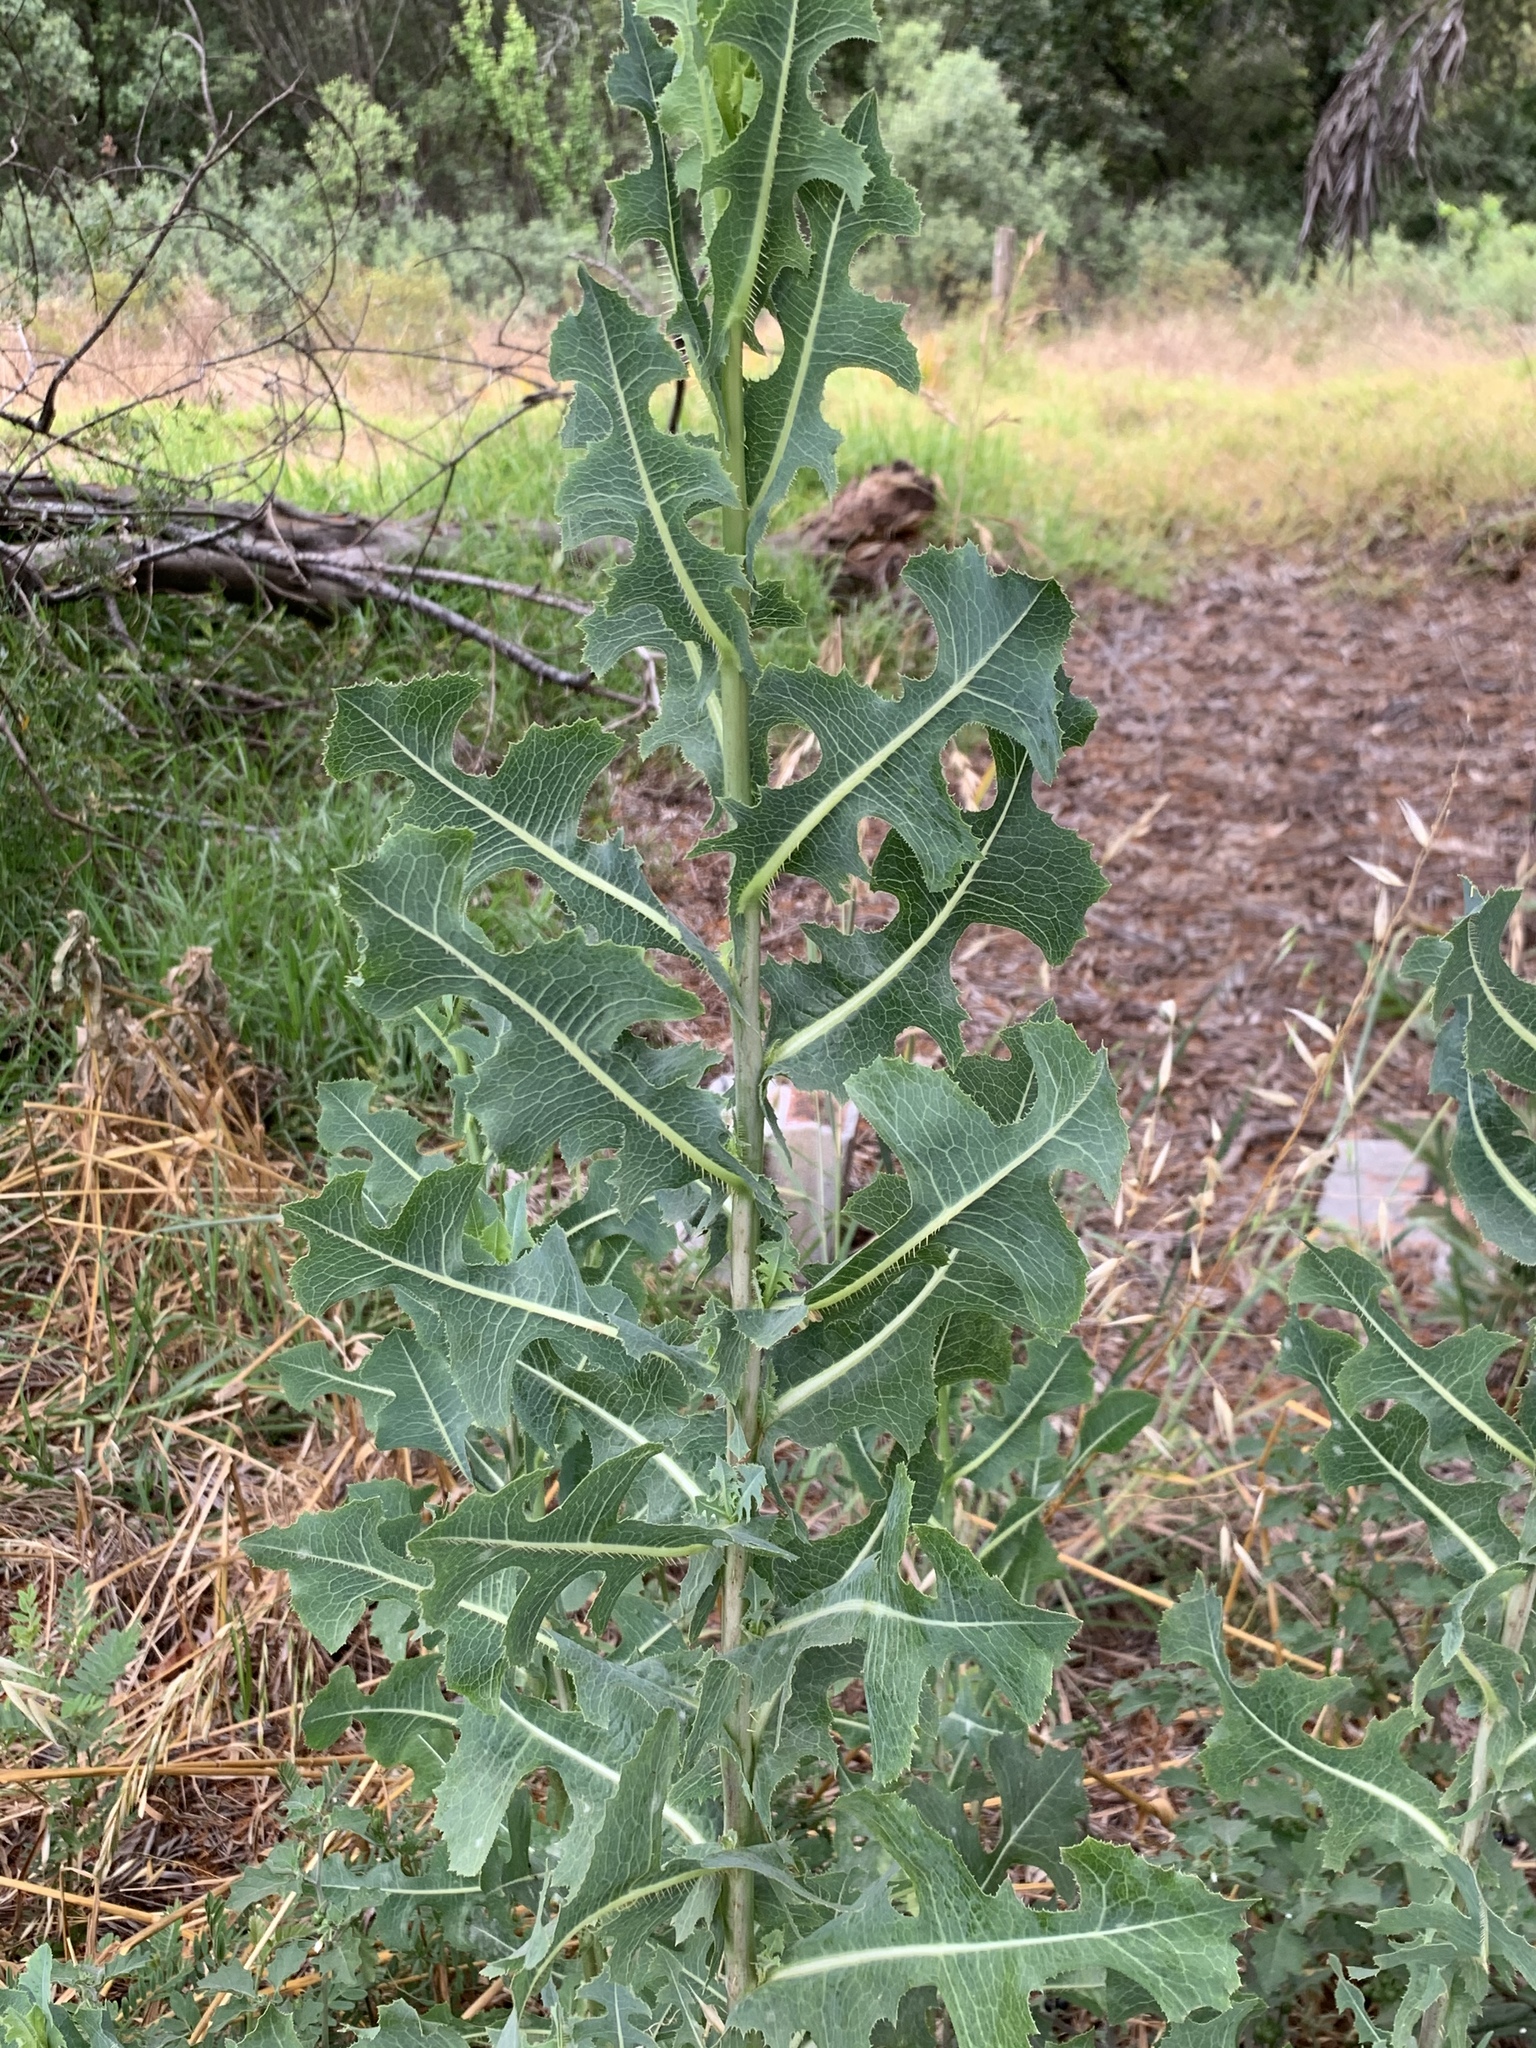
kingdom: Plantae
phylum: Tracheophyta
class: Magnoliopsida
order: Asterales
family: Asteraceae
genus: Lactuca
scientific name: Lactuca serriola
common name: Prickly lettuce
